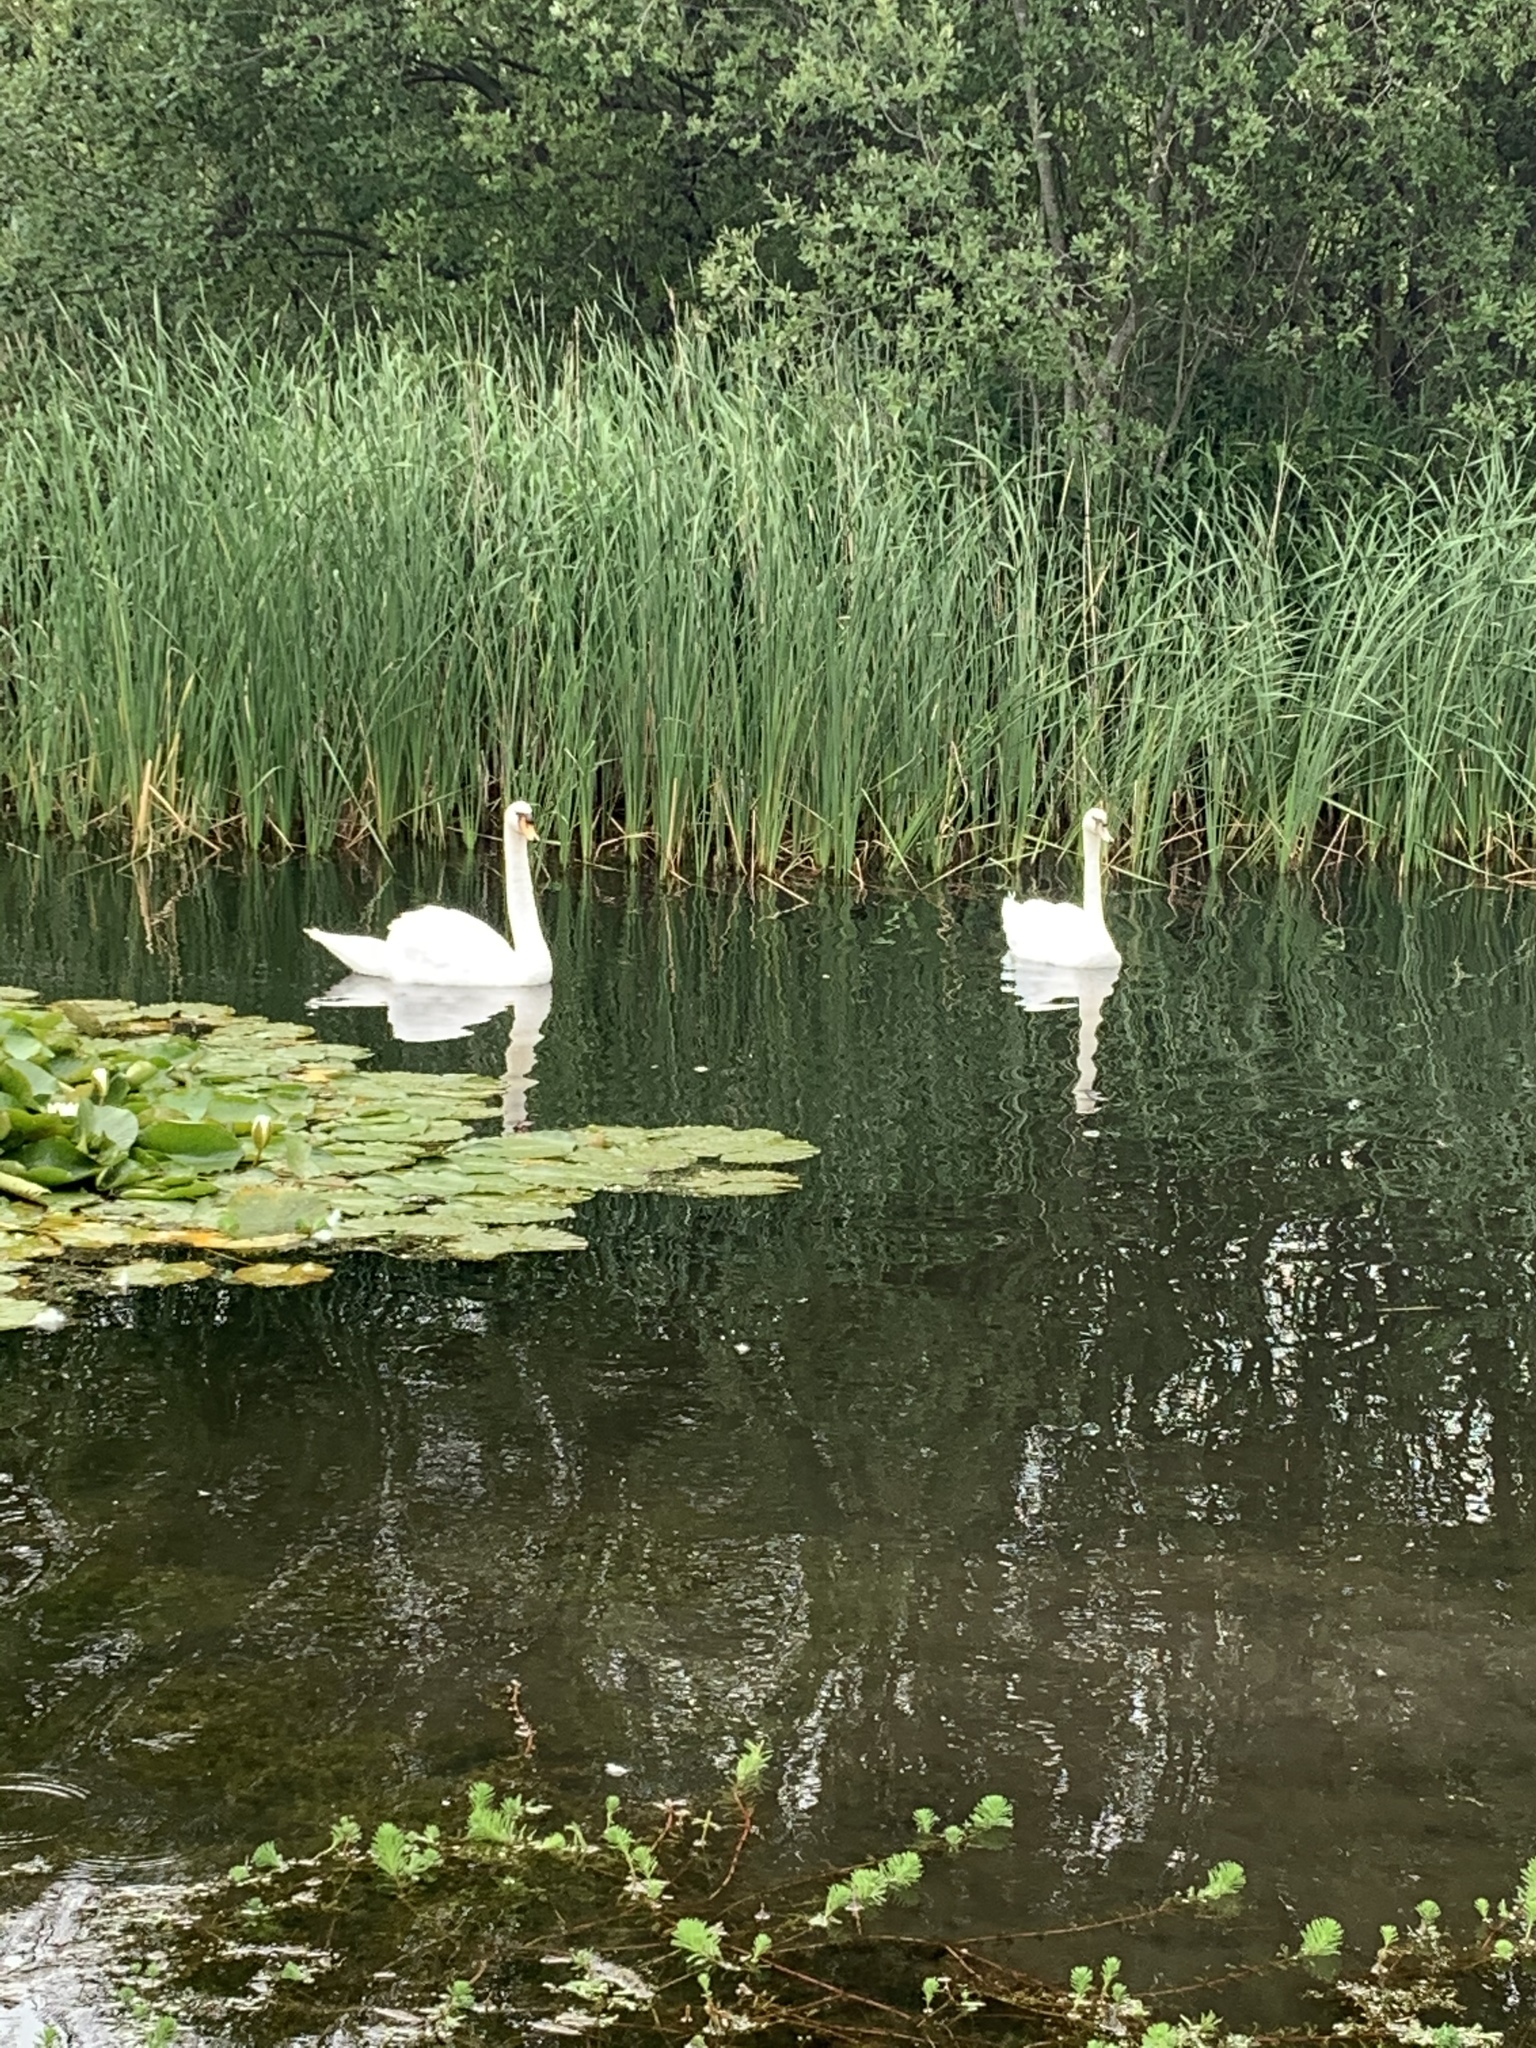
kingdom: Animalia
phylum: Chordata
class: Aves
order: Anseriformes
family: Anatidae
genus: Cygnus
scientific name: Cygnus olor
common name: Mute swan
